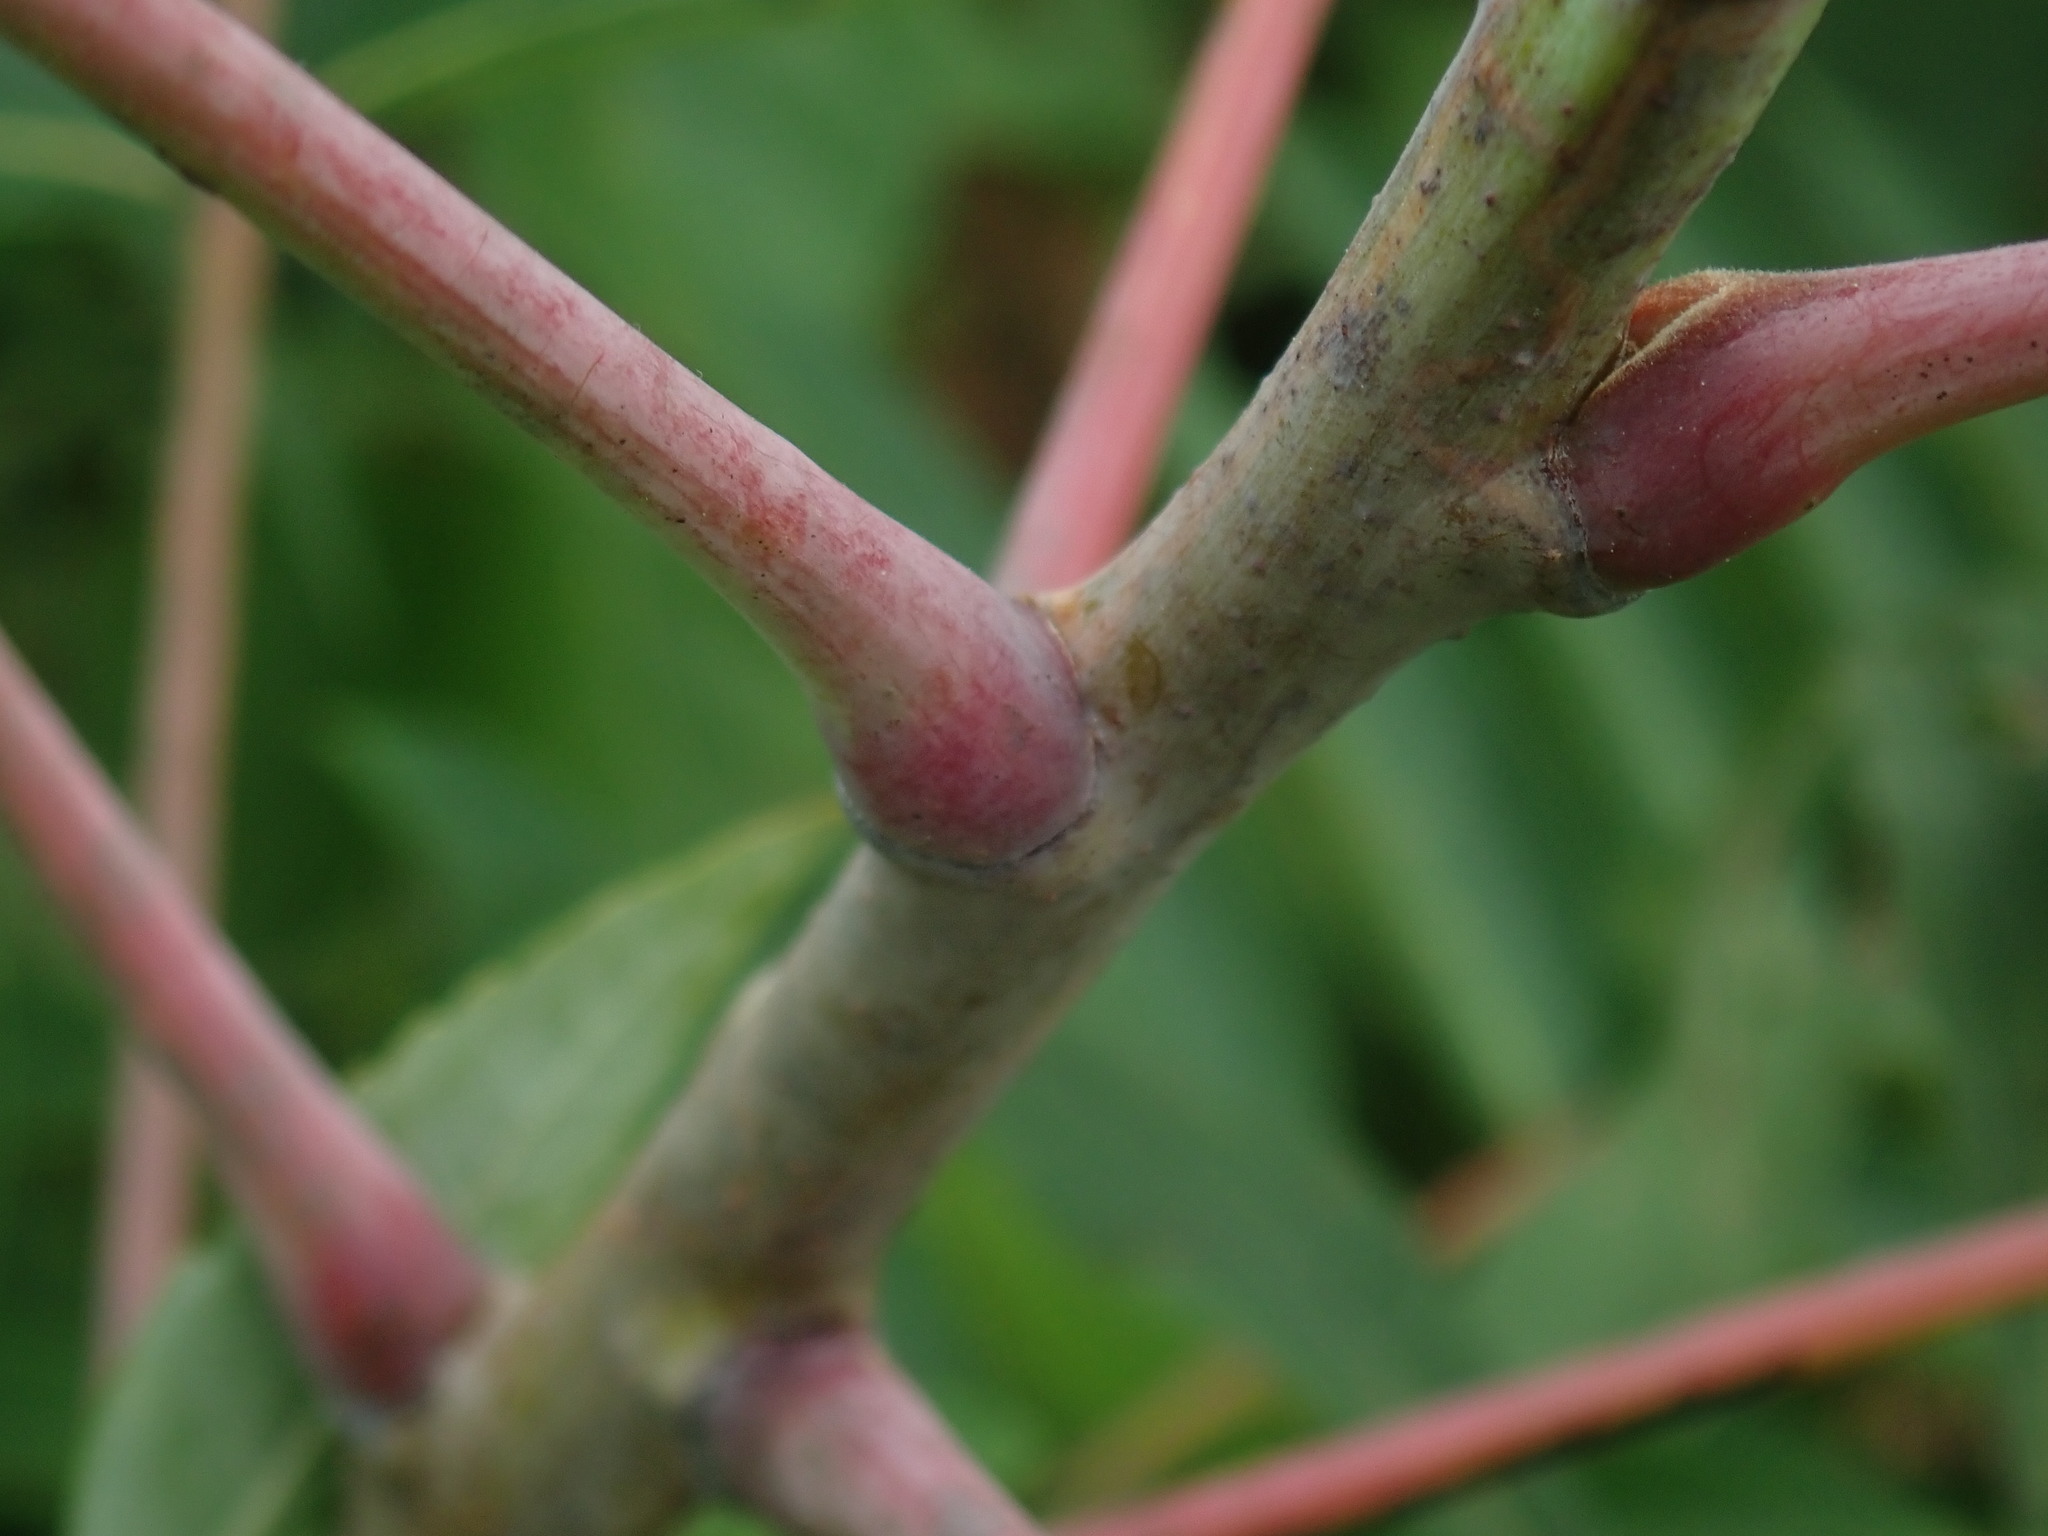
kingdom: Plantae
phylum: Tracheophyta
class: Magnoliopsida
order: Sapindales
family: Anacardiaceae
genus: Rhus
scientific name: Rhus glabra
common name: Scarlet sumac
